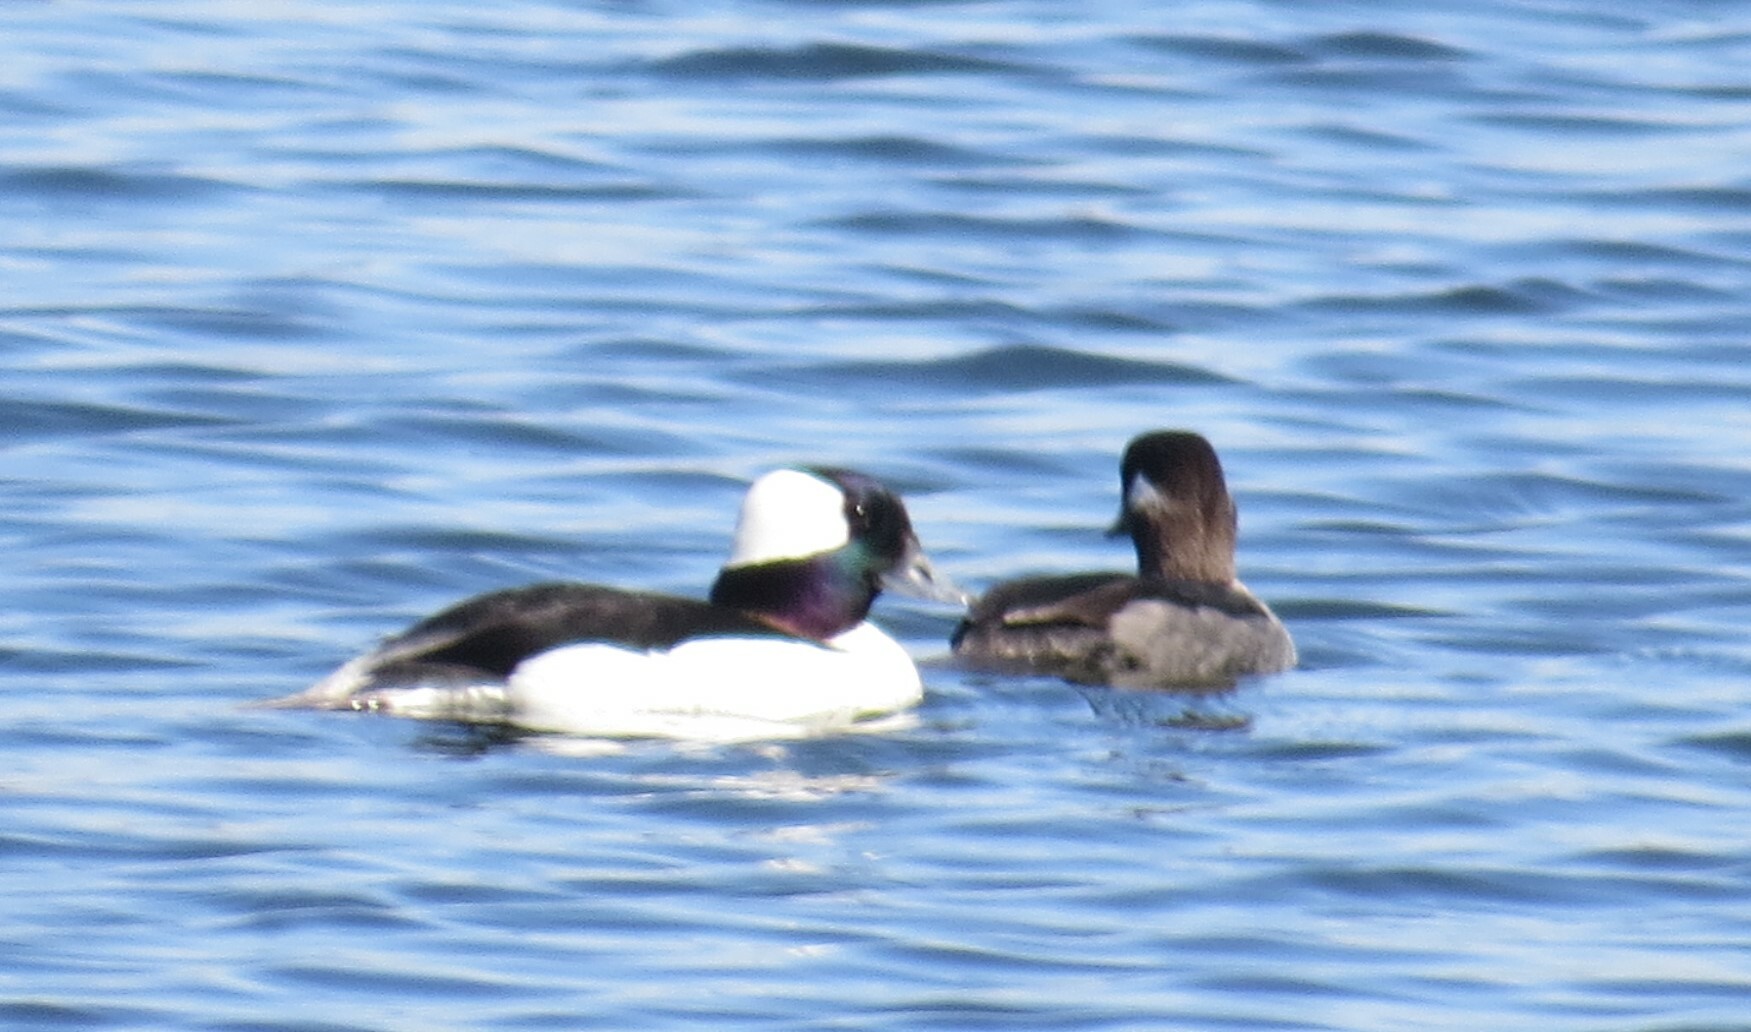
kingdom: Animalia
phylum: Chordata
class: Aves
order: Anseriformes
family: Anatidae
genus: Bucephala
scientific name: Bucephala albeola
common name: Bufflehead
